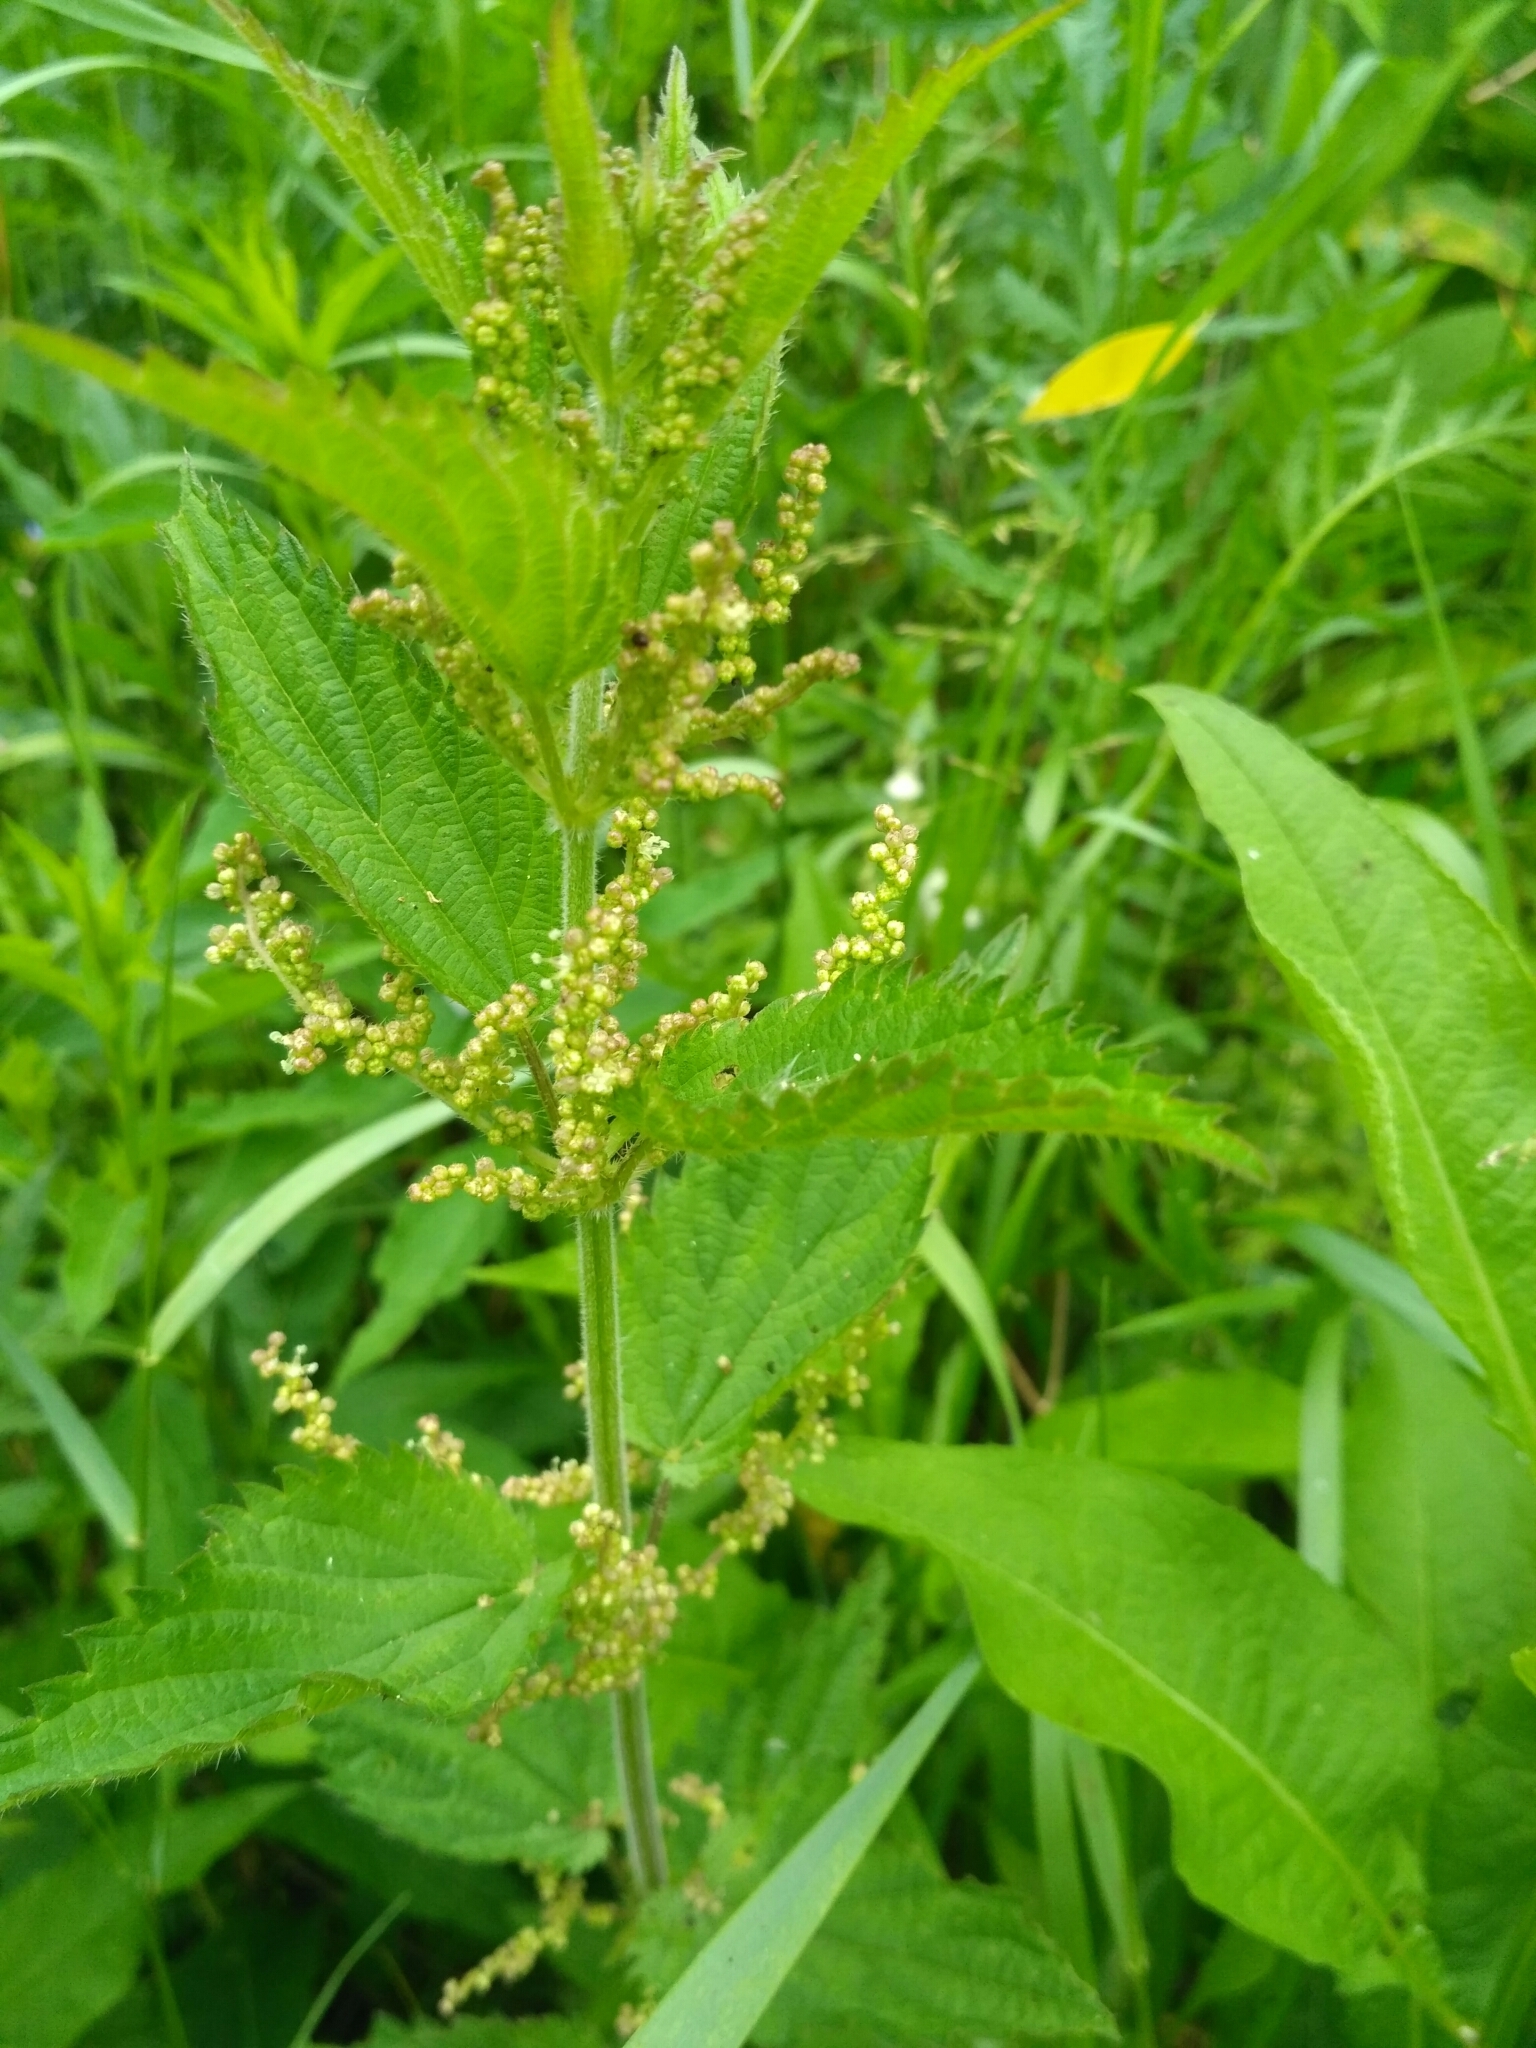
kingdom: Plantae
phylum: Tracheophyta
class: Magnoliopsida
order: Rosales
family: Urticaceae
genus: Urtica
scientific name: Urtica dioica
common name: Common nettle
